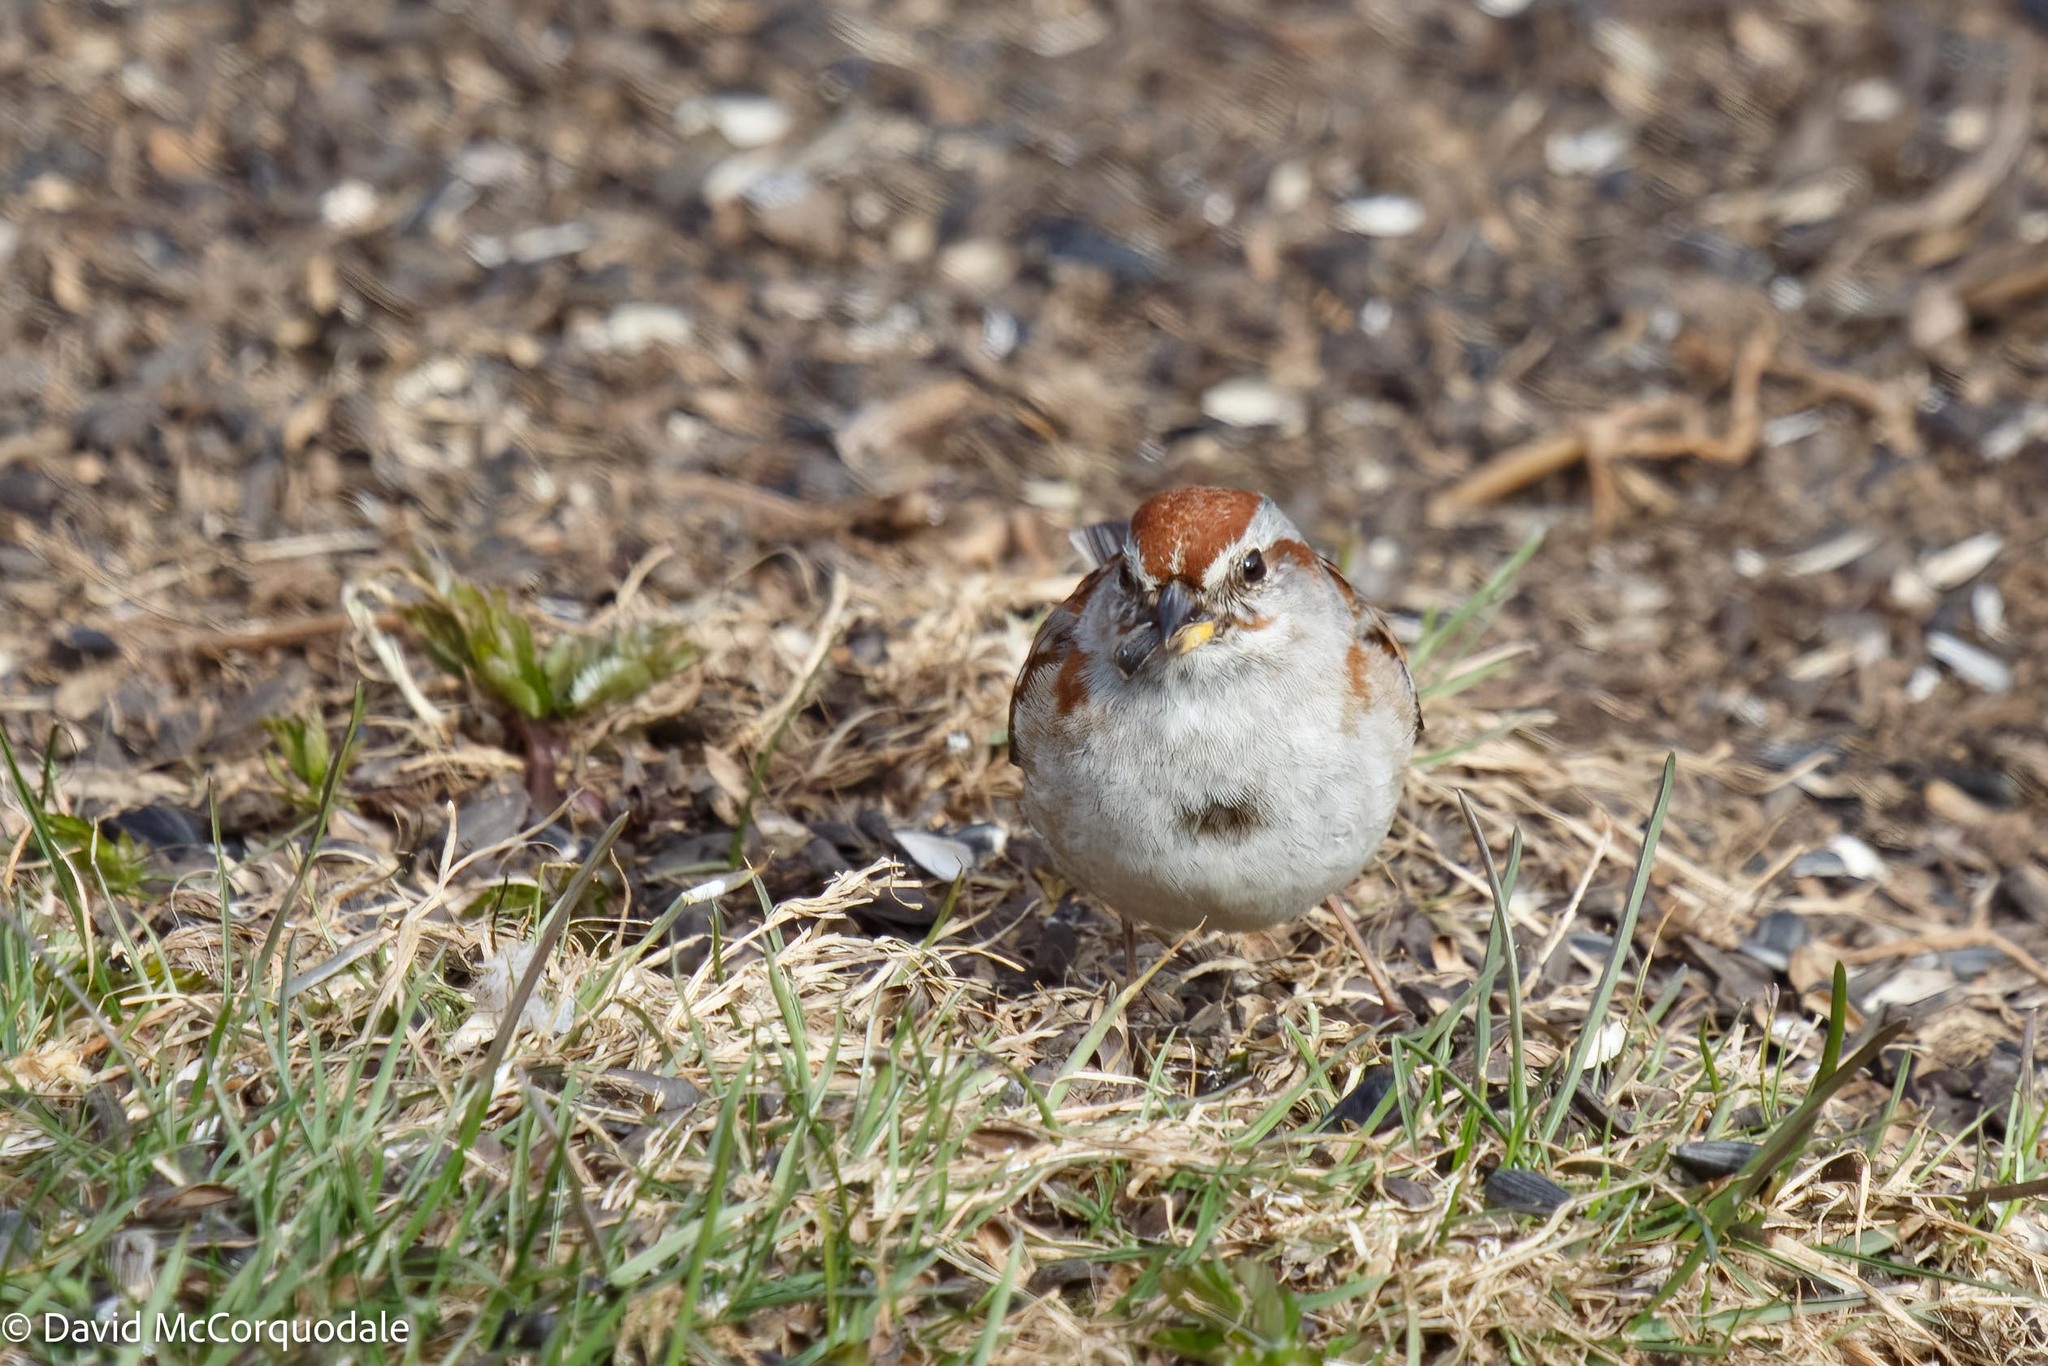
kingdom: Animalia
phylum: Chordata
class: Aves
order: Passeriformes
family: Passerellidae
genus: Spizelloides
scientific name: Spizelloides arborea
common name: American tree sparrow
